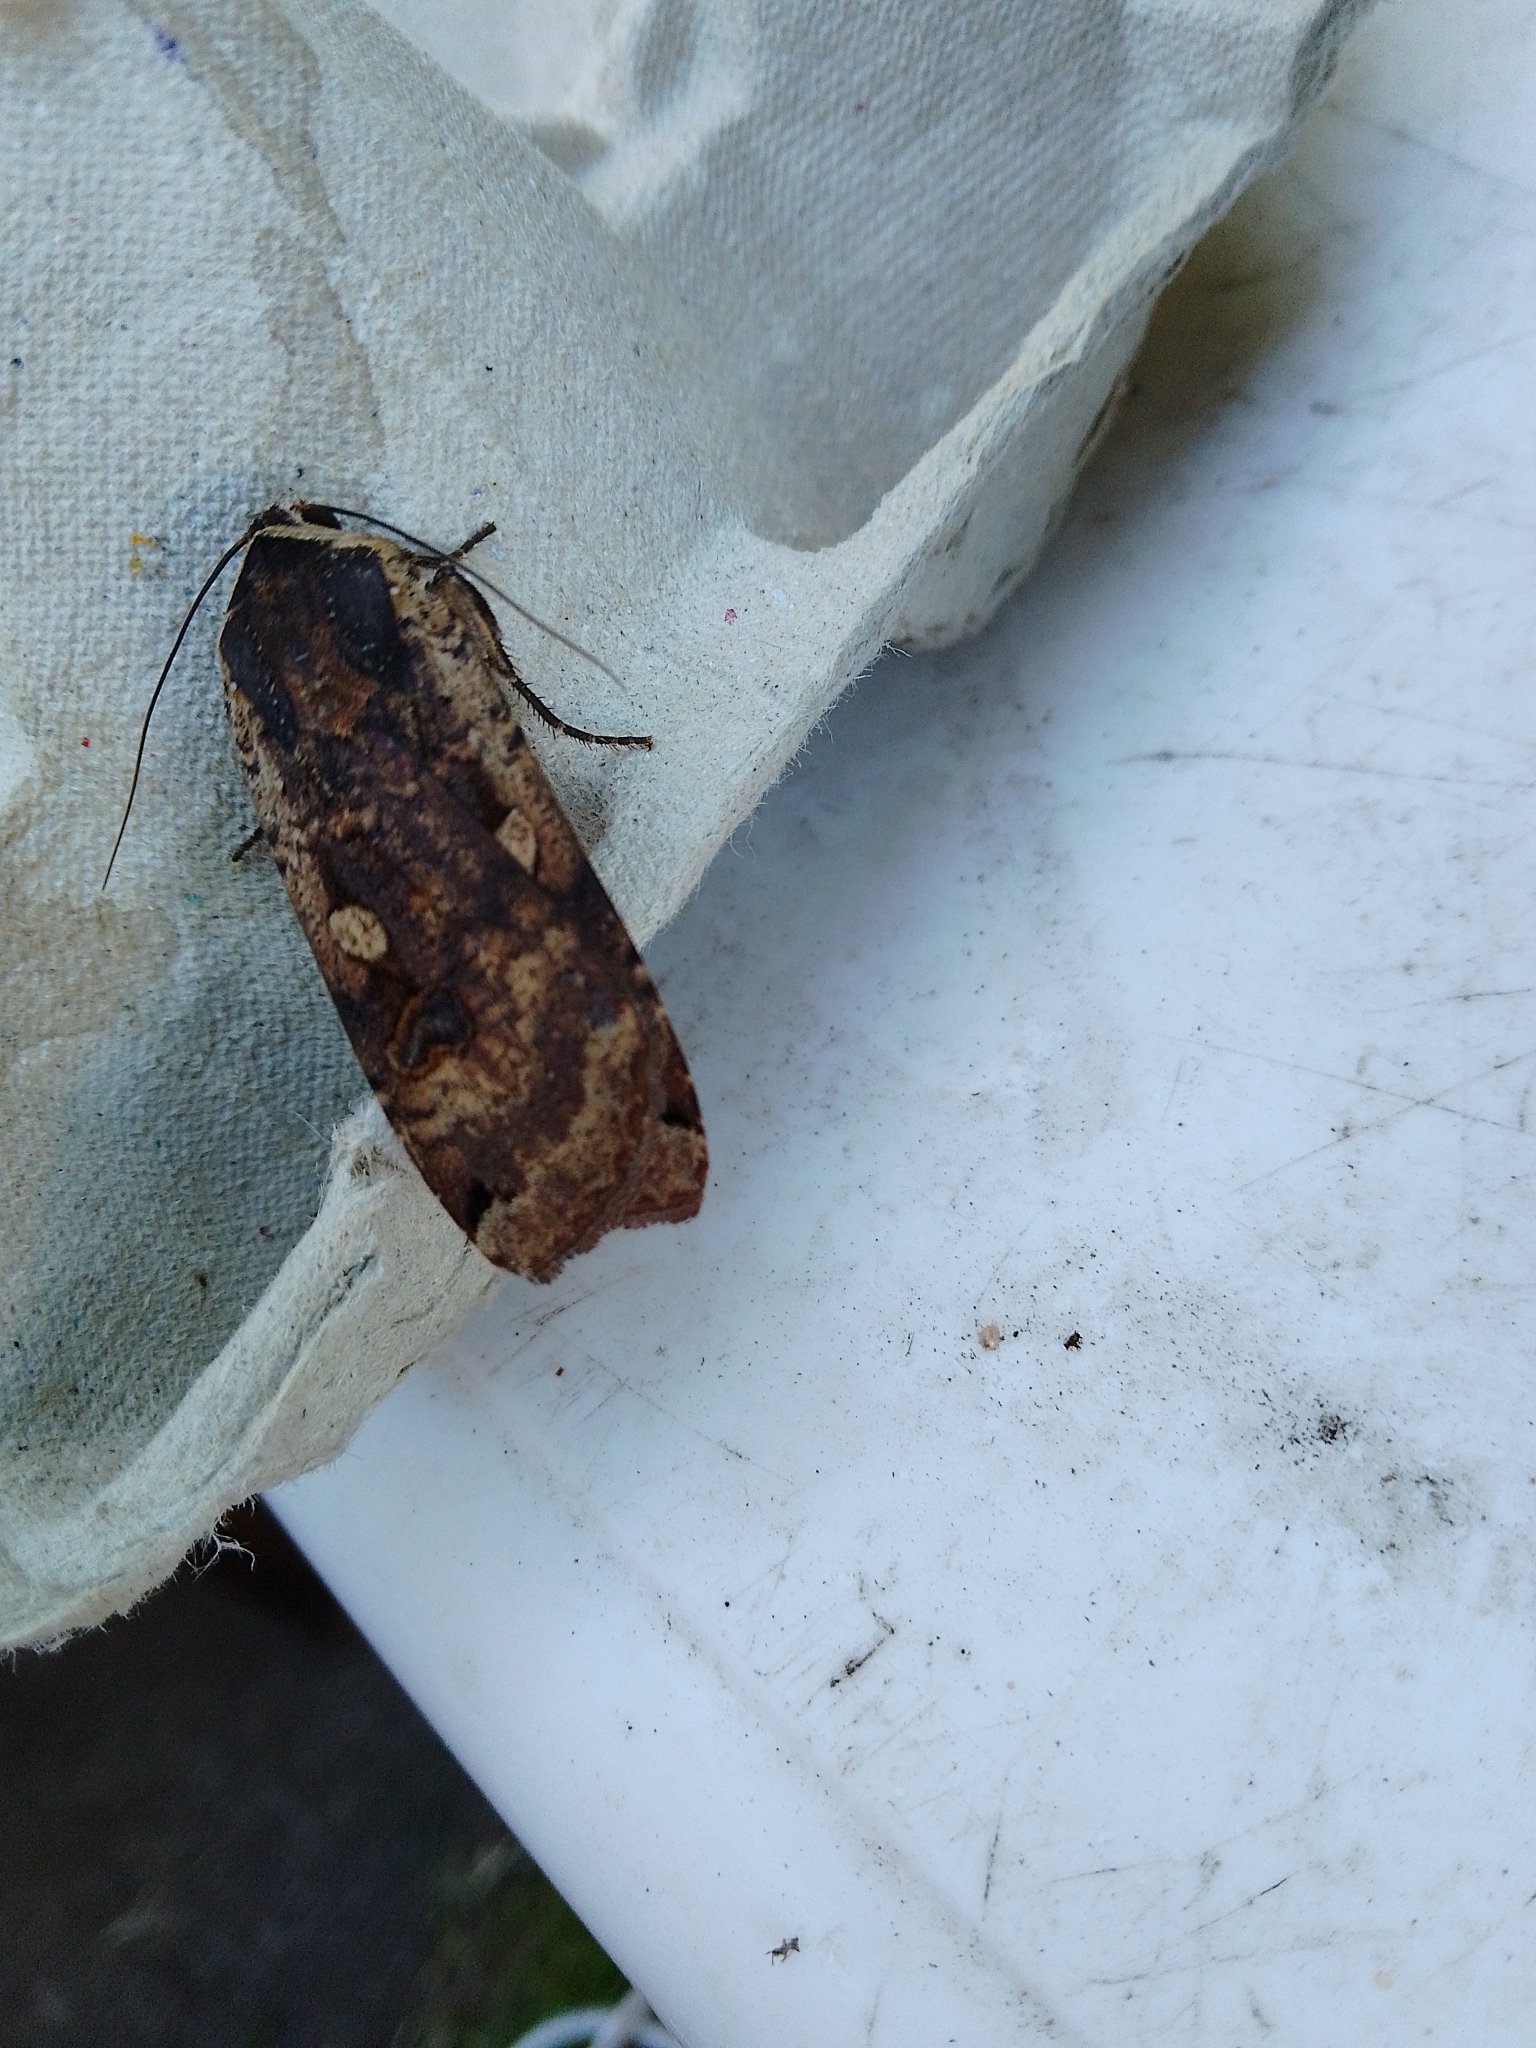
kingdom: Animalia
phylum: Arthropoda
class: Insecta
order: Lepidoptera
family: Noctuidae
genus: Noctua
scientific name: Noctua pronuba
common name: Large yellow underwing
